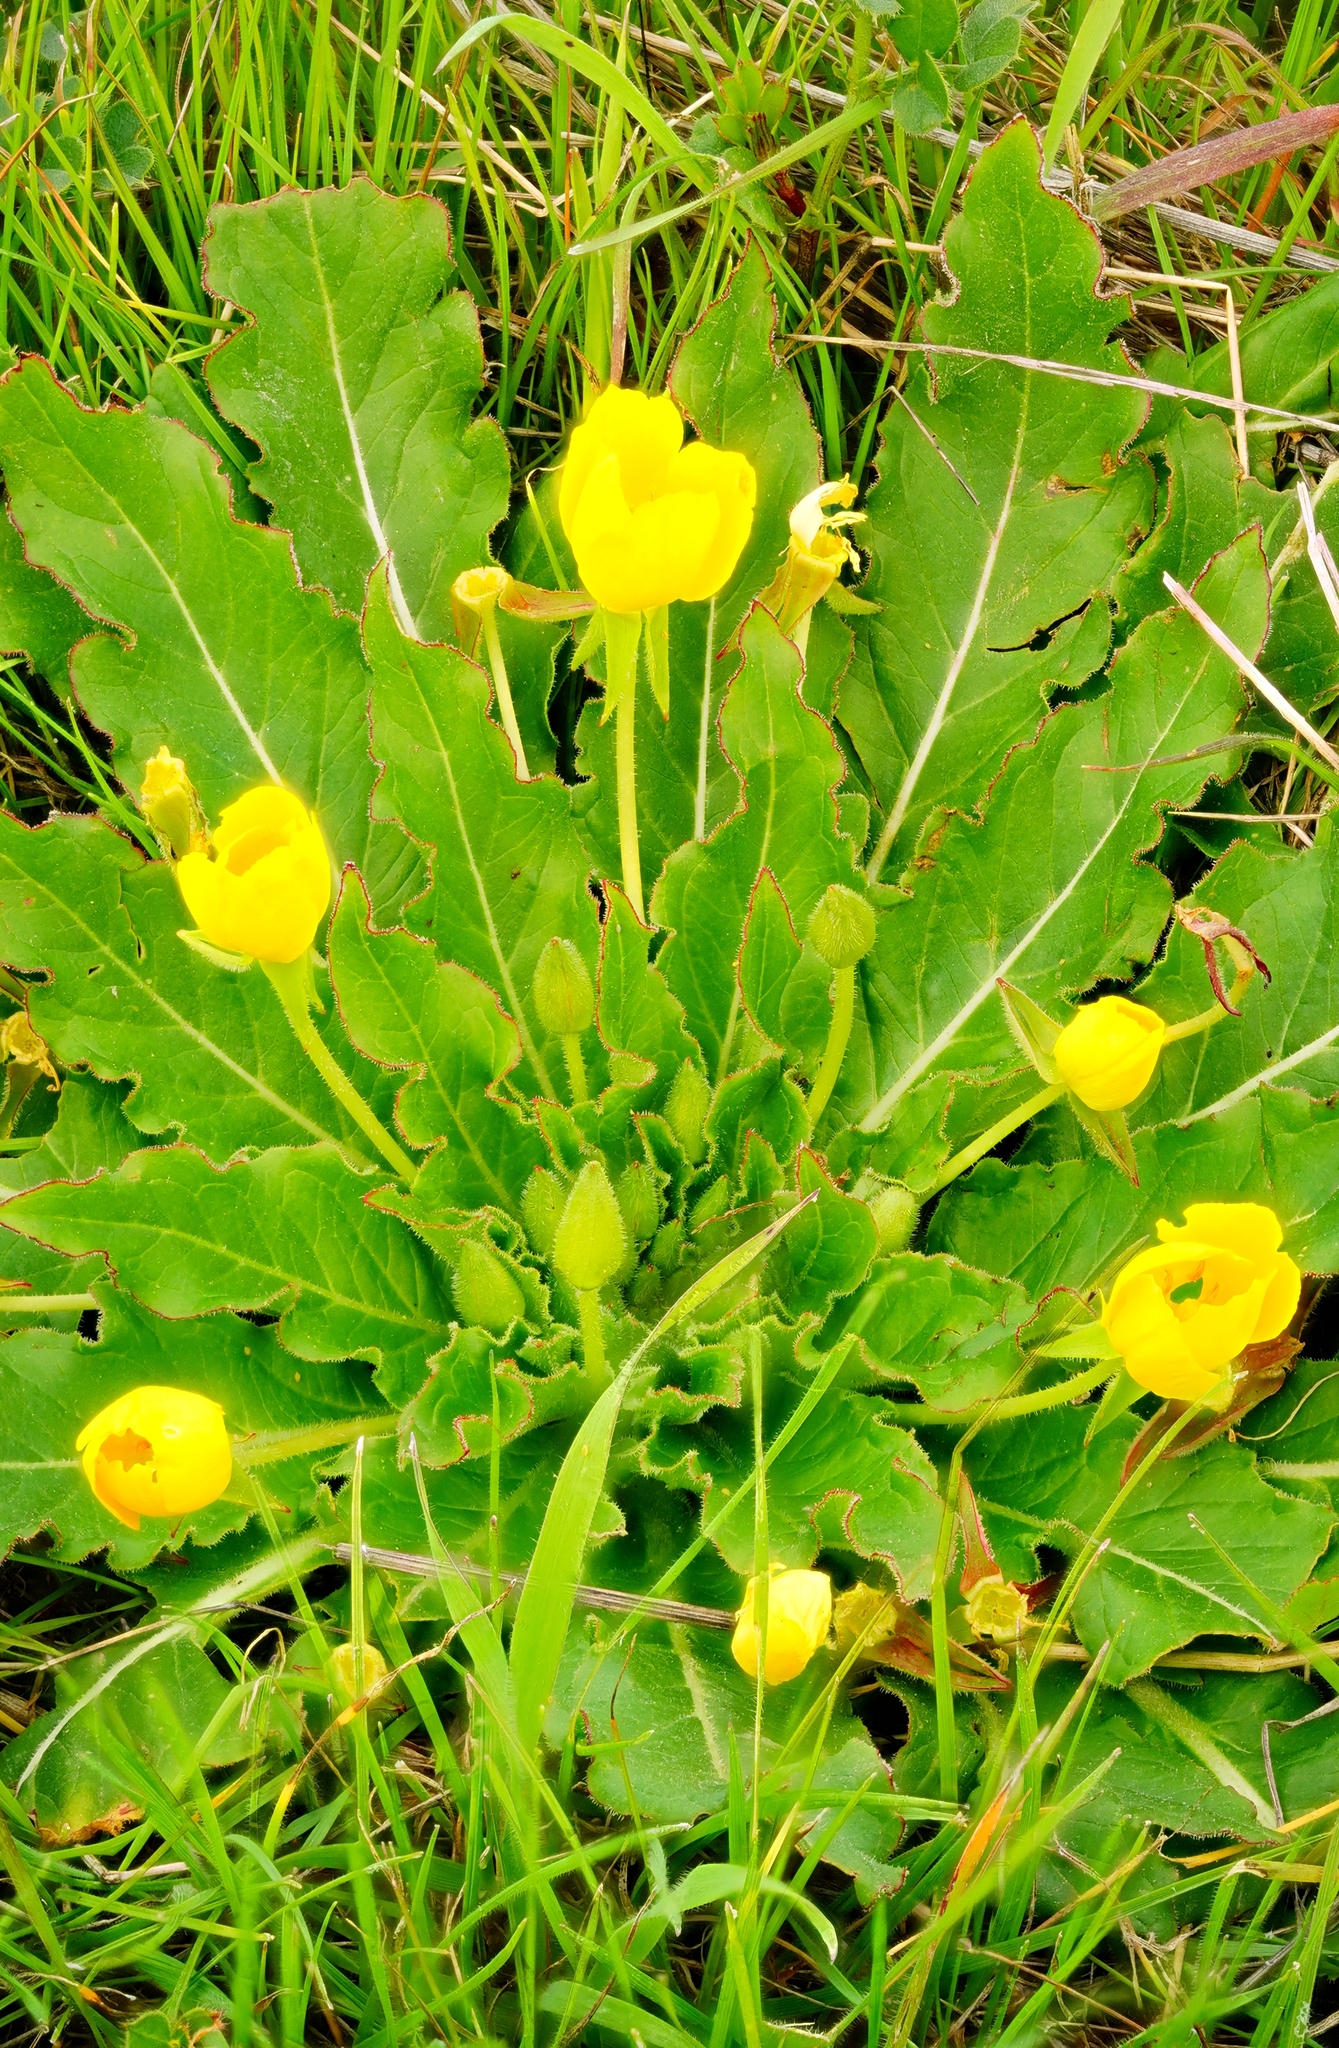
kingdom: Plantae
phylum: Tracheophyta
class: Magnoliopsida
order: Myrtales
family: Onagraceae
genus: Taraxia
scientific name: Taraxia ovata
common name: Goldeneggs
